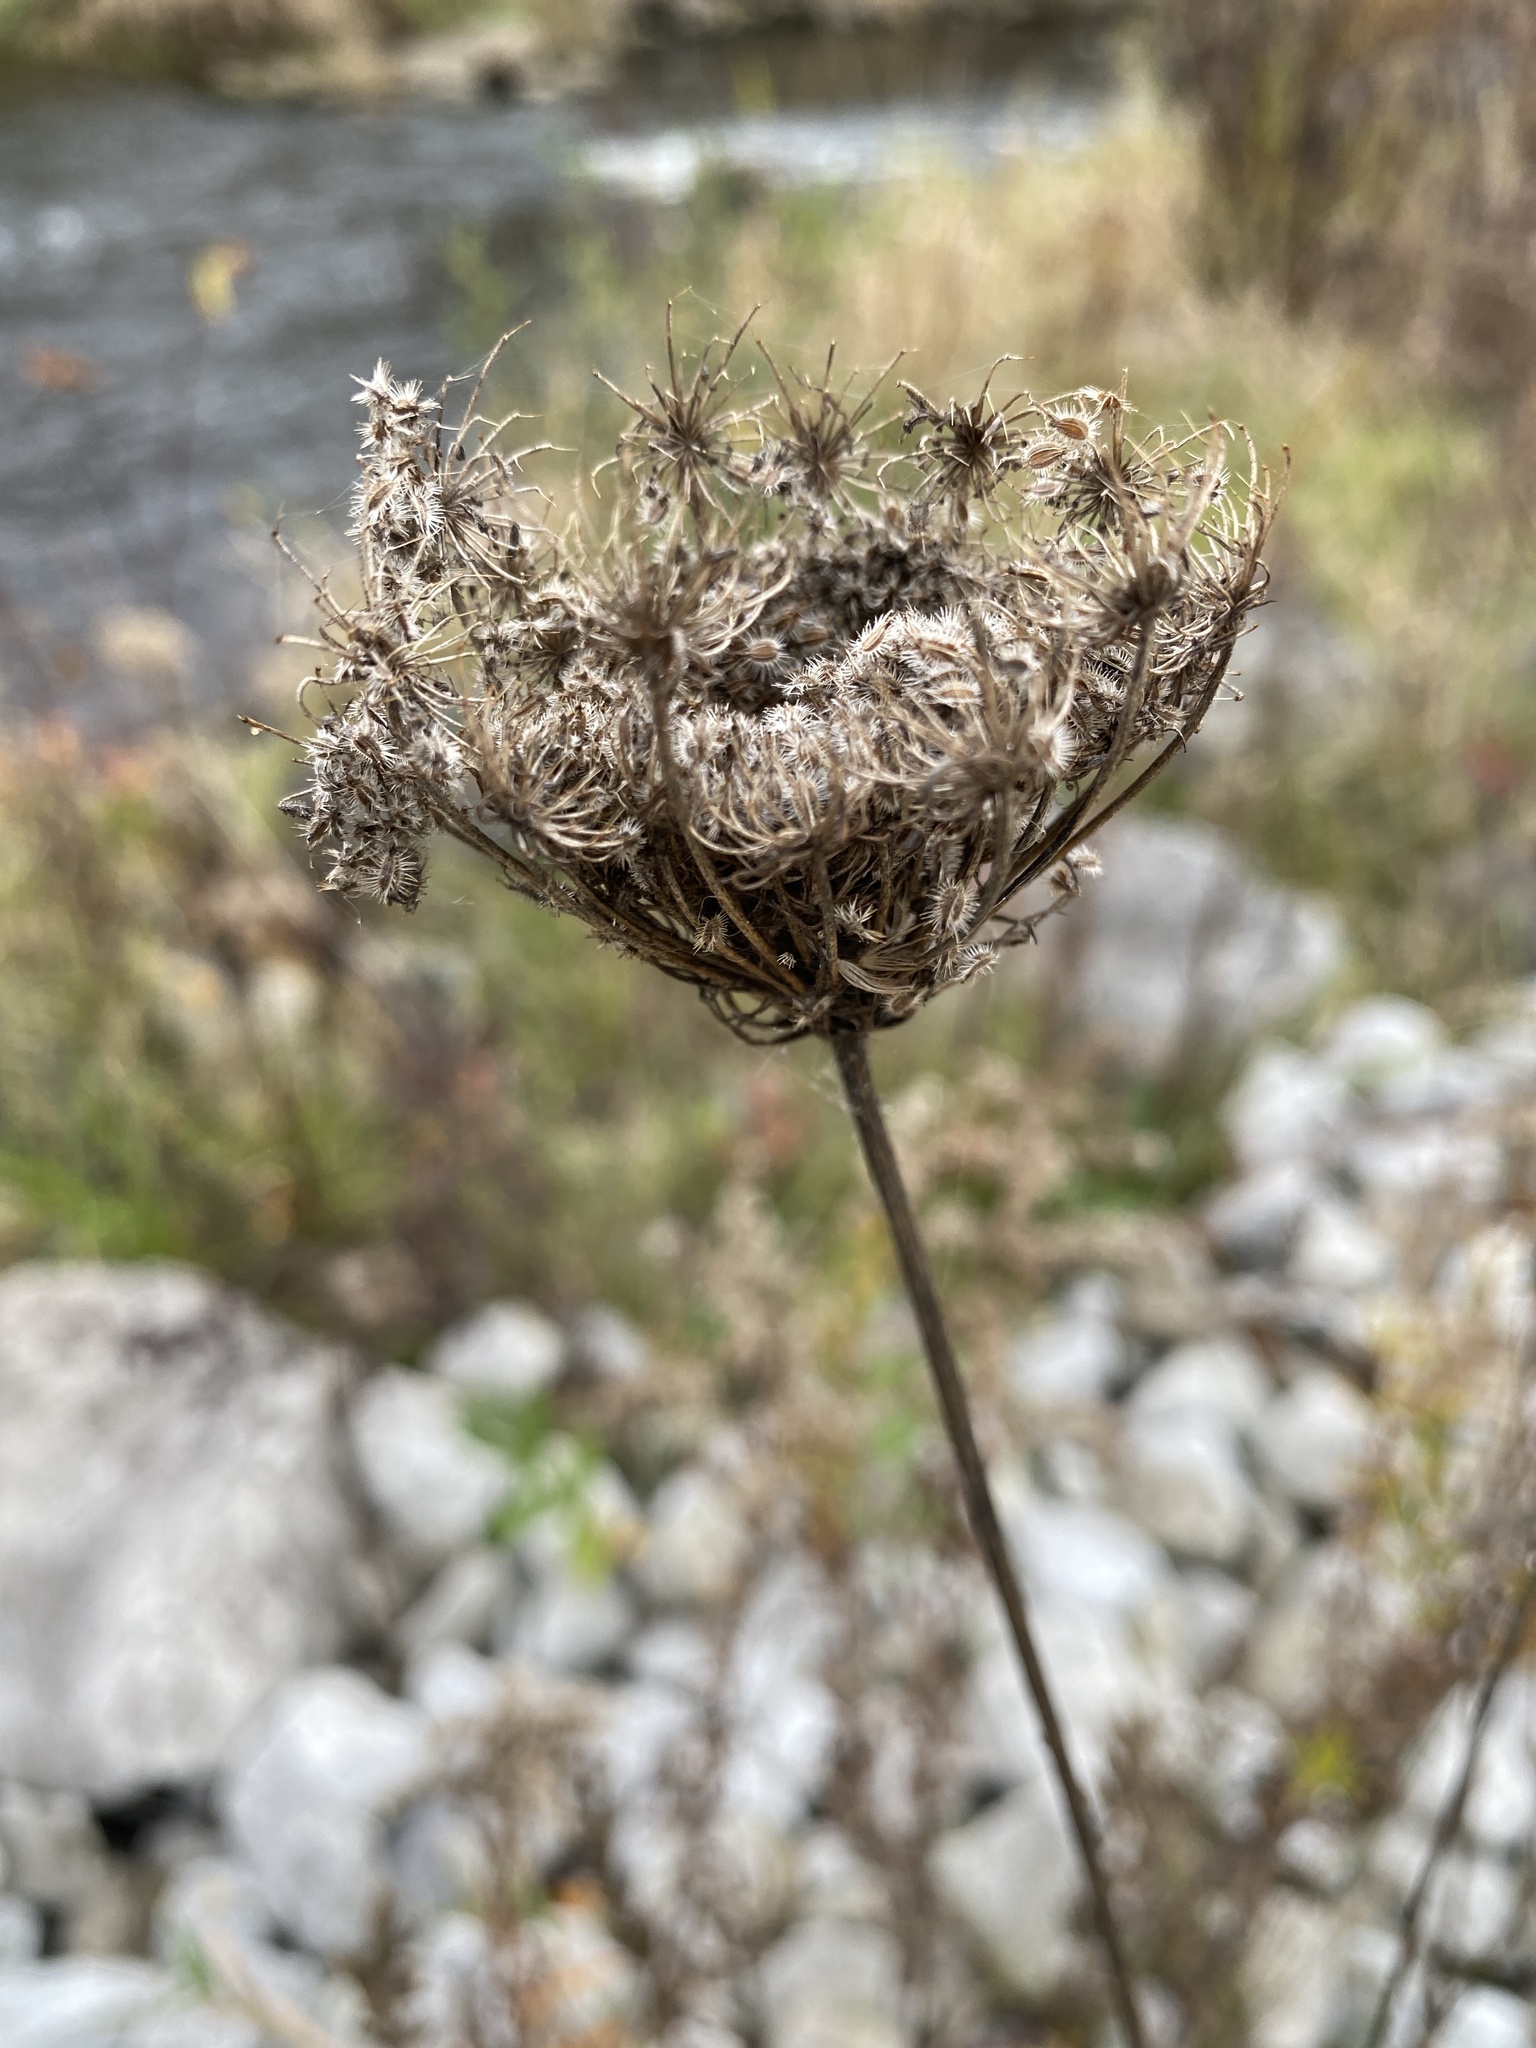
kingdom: Plantae
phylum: Tracheophyta
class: Magnoliopsida
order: Apiales
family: Apiaceae
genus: Daucus
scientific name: Daucus carota
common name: Wild carrot
